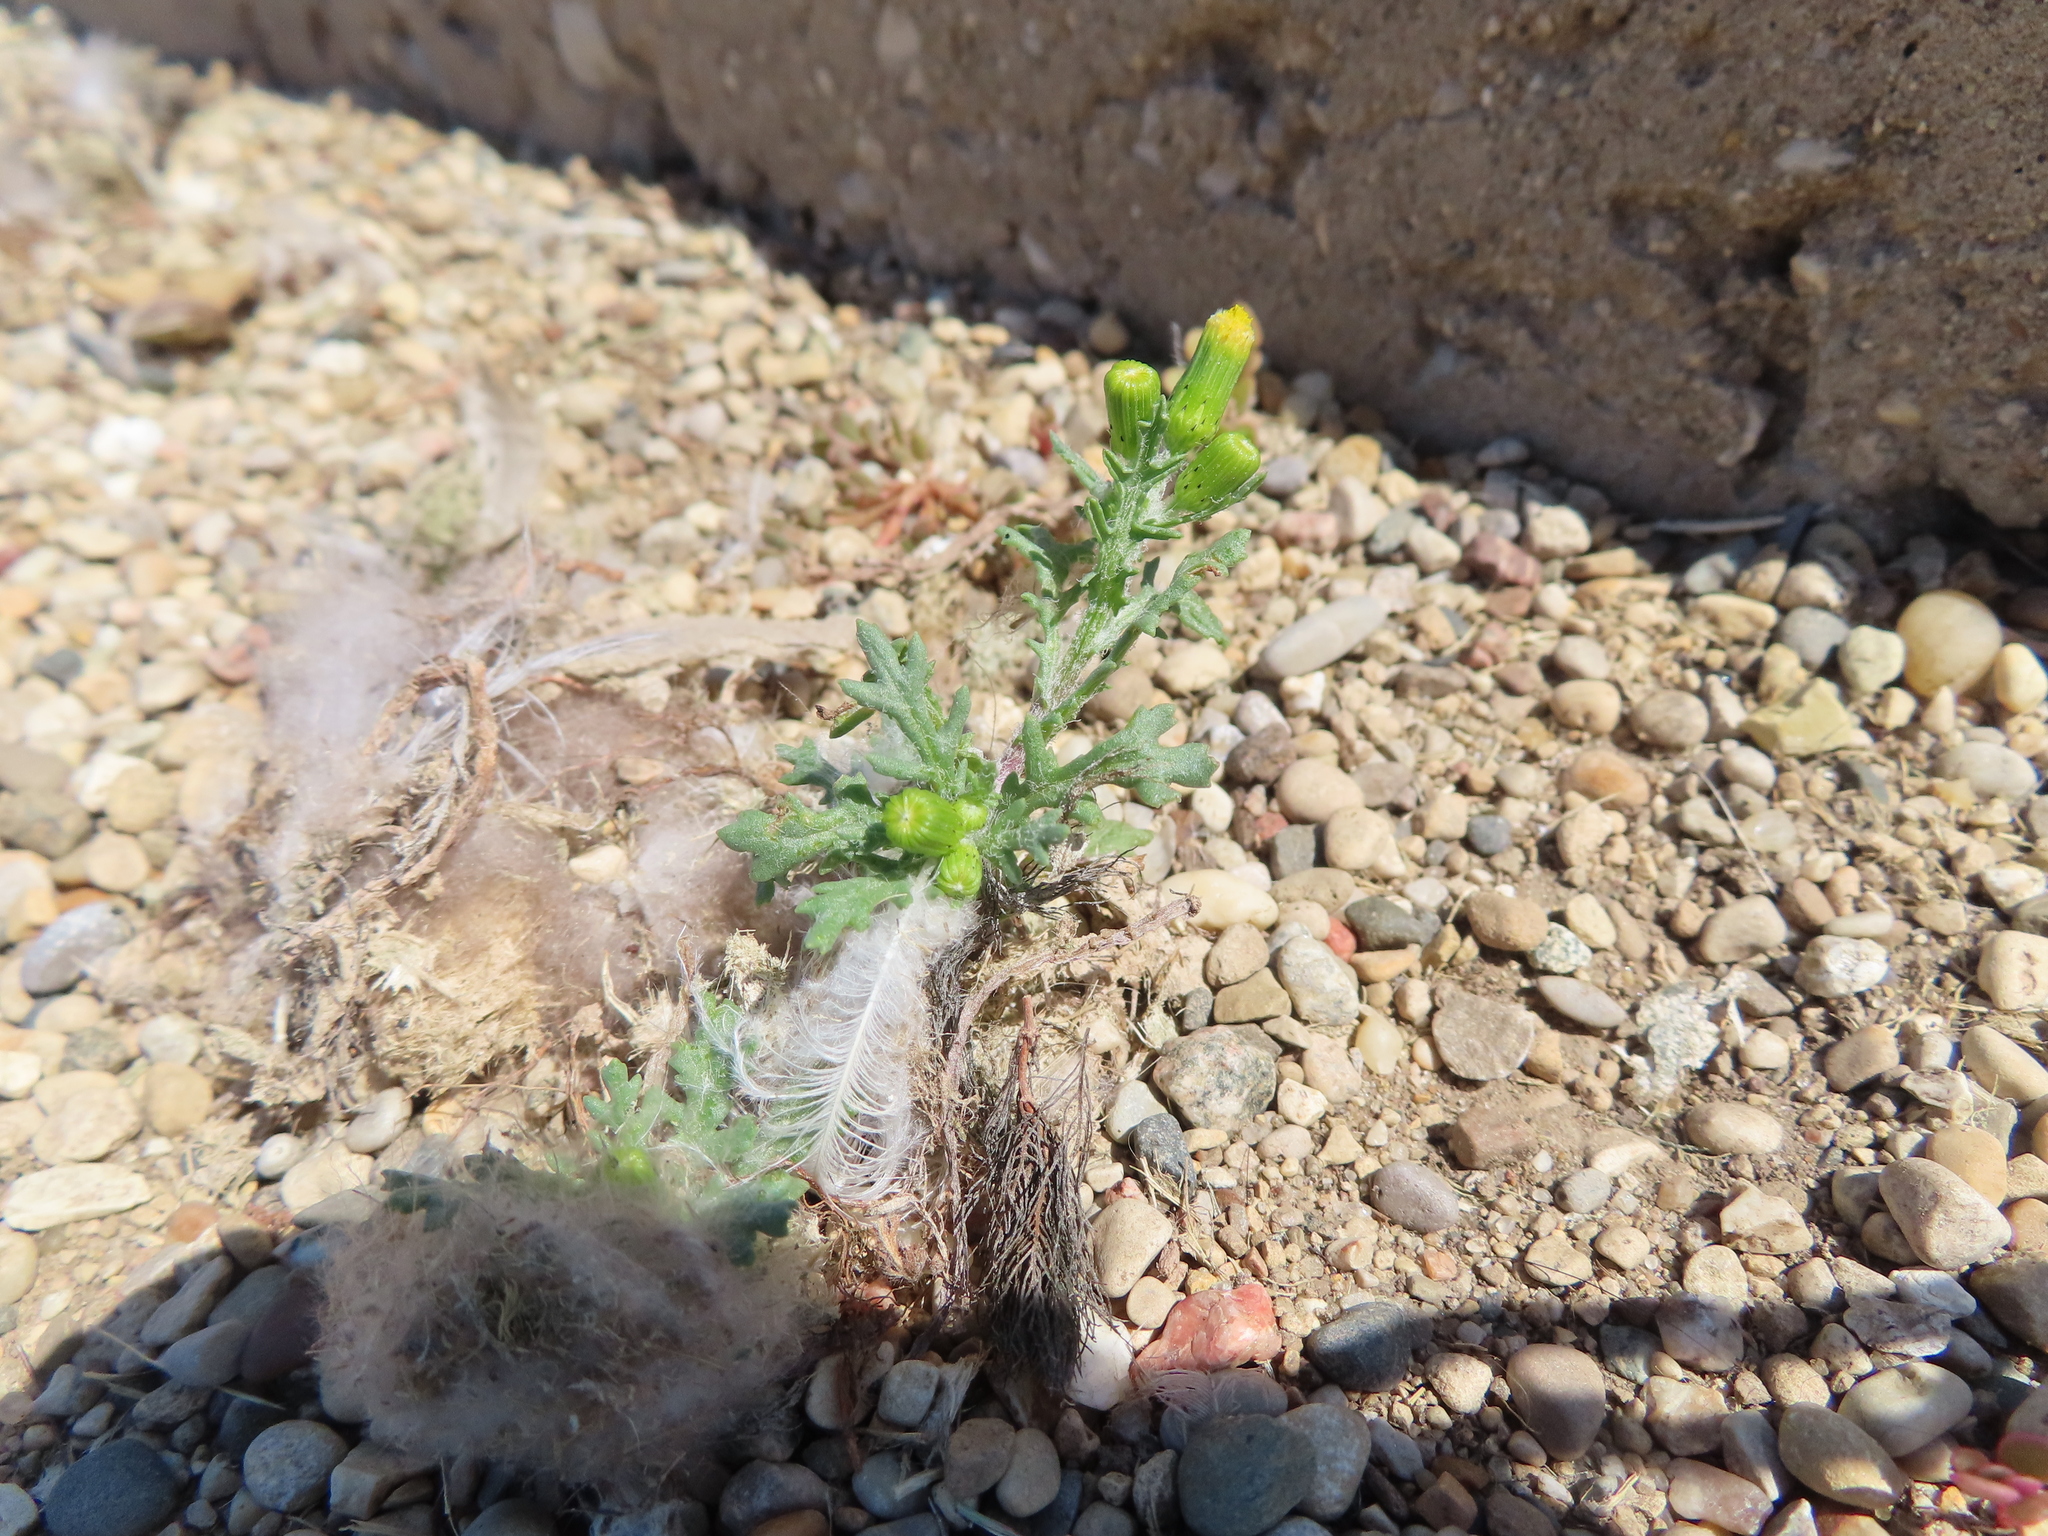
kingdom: Plantae
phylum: Tracheophyta
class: Magnoliopsida
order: Asterales
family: Asteraceae
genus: Senecio
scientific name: Senecio vulgaris
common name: Old-man-in-the-spring
